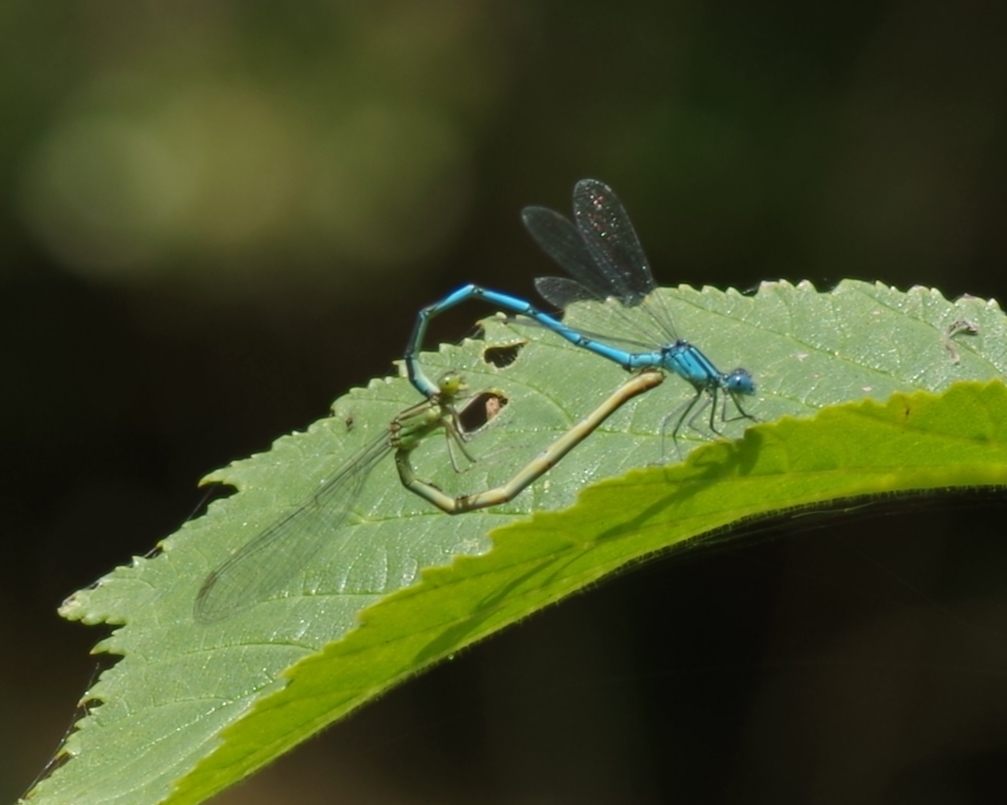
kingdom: Animalia
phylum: Arthropoda
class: Insecta
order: Odonata
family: Coenagrionidae
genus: Erythromma
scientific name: Erythromma lindenii
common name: Blue-eye
